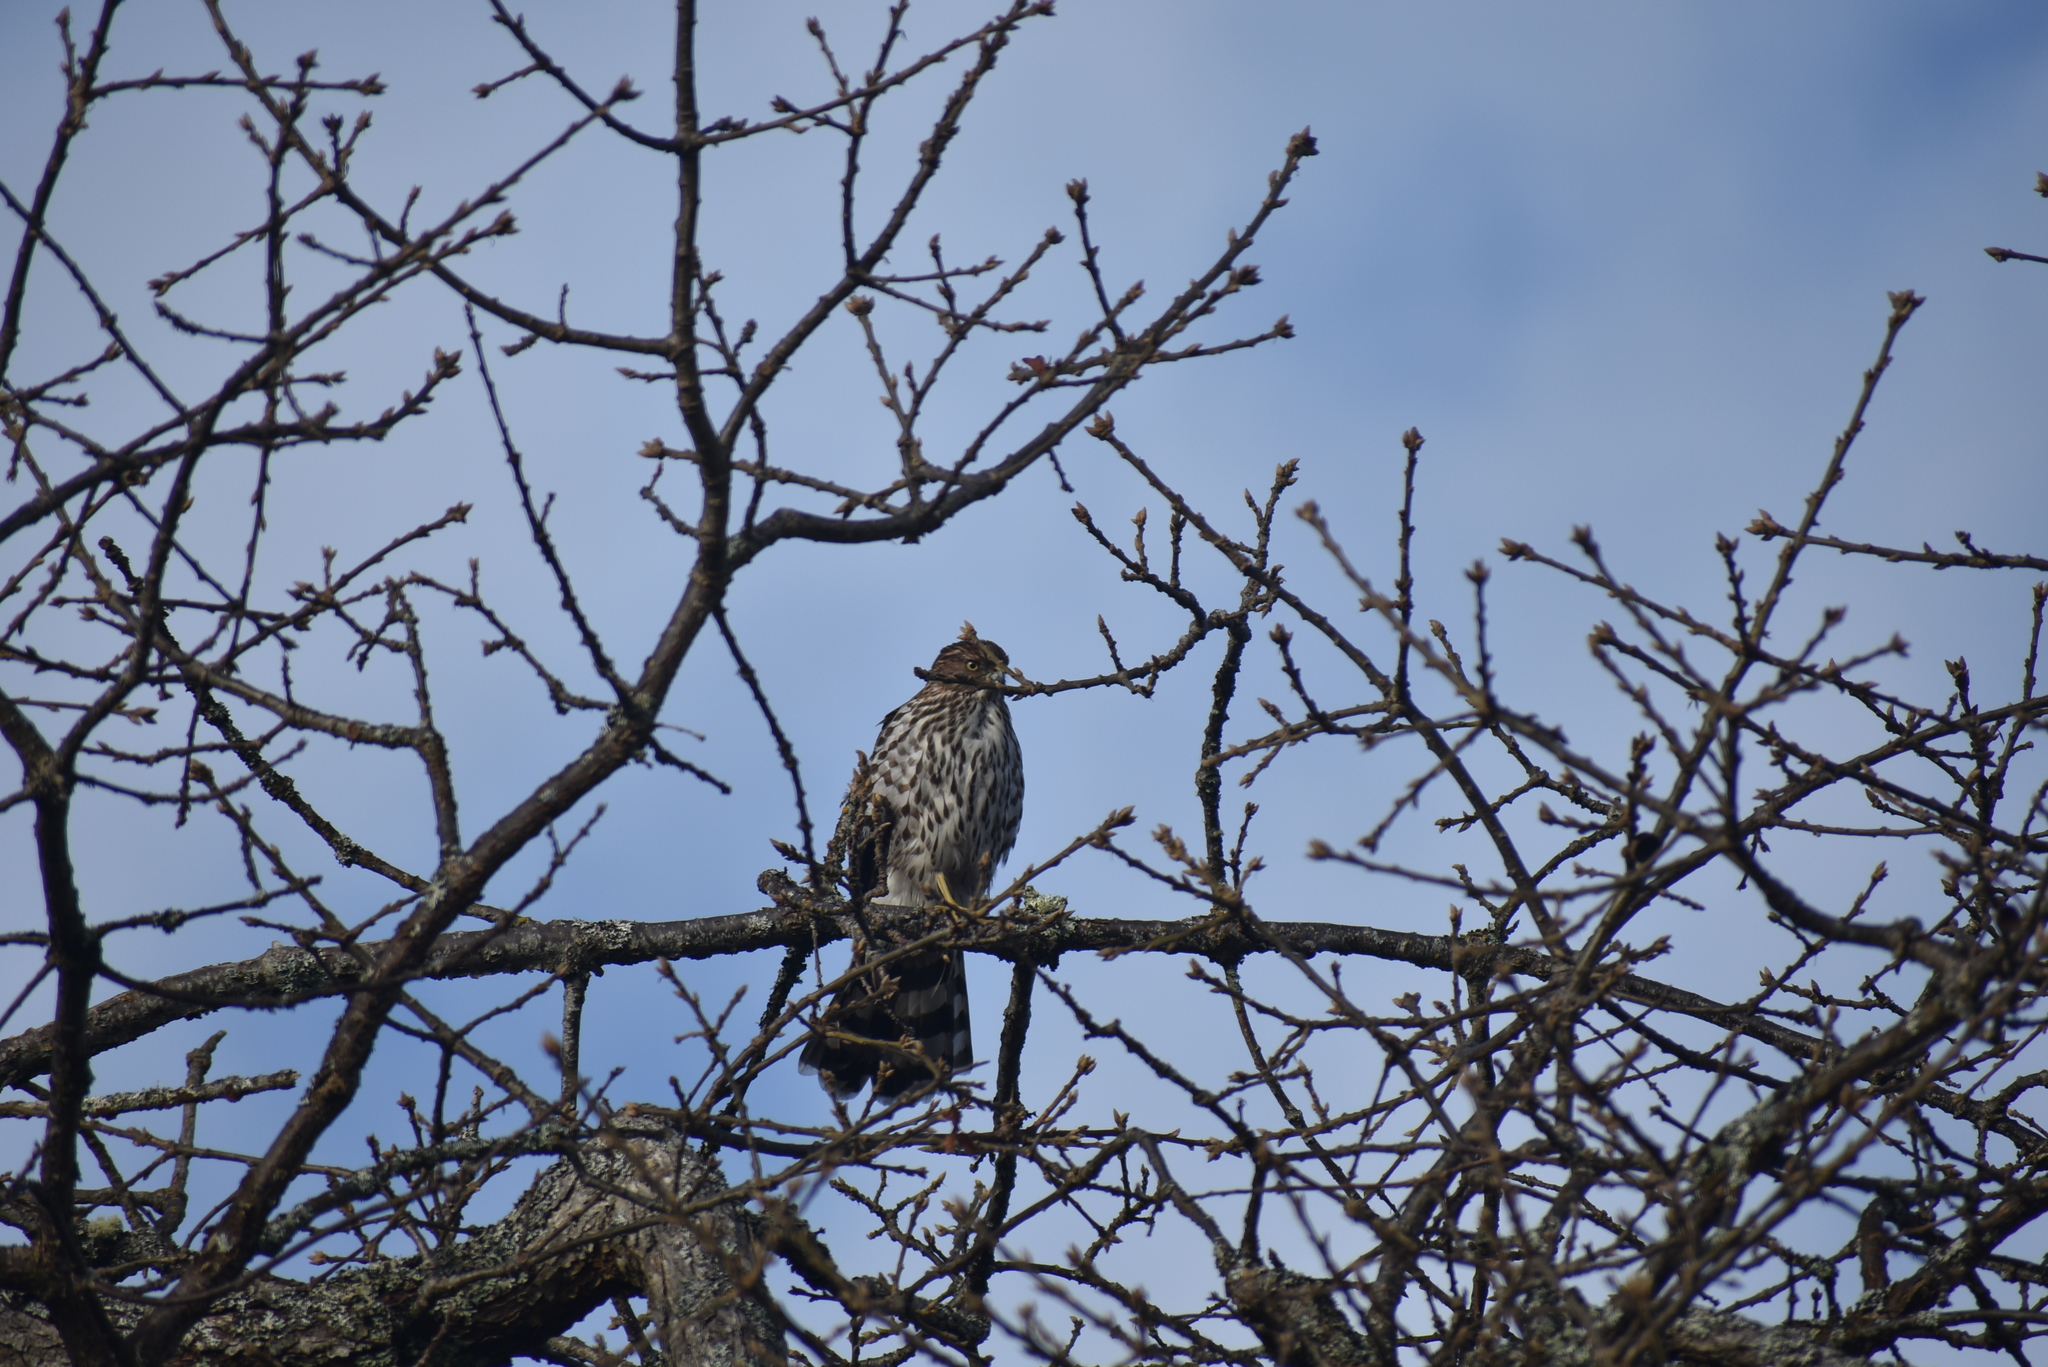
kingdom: Animalia
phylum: Chordata
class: Aves
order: Accipitriformes
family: Accipitridae
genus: Accipiter
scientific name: Accipiter cooperii
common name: Cooper's hawk
